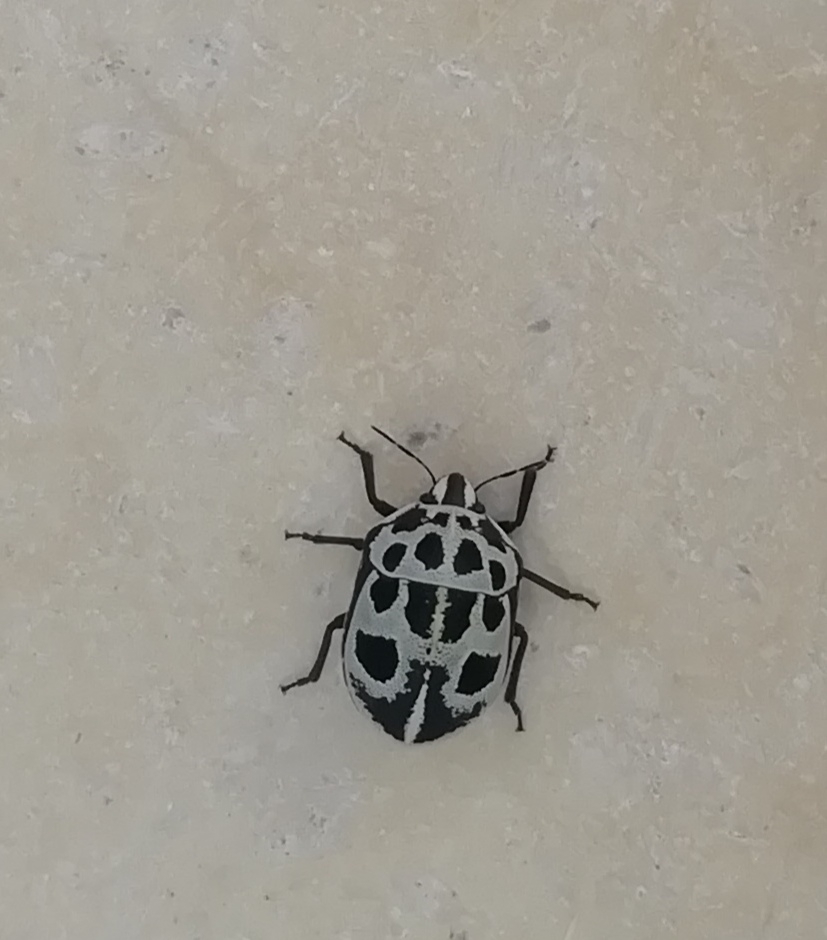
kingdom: Animalia
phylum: Arthropoda
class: Insecta
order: Hemiptera
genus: Deroplax
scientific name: Deroplax silphoides
